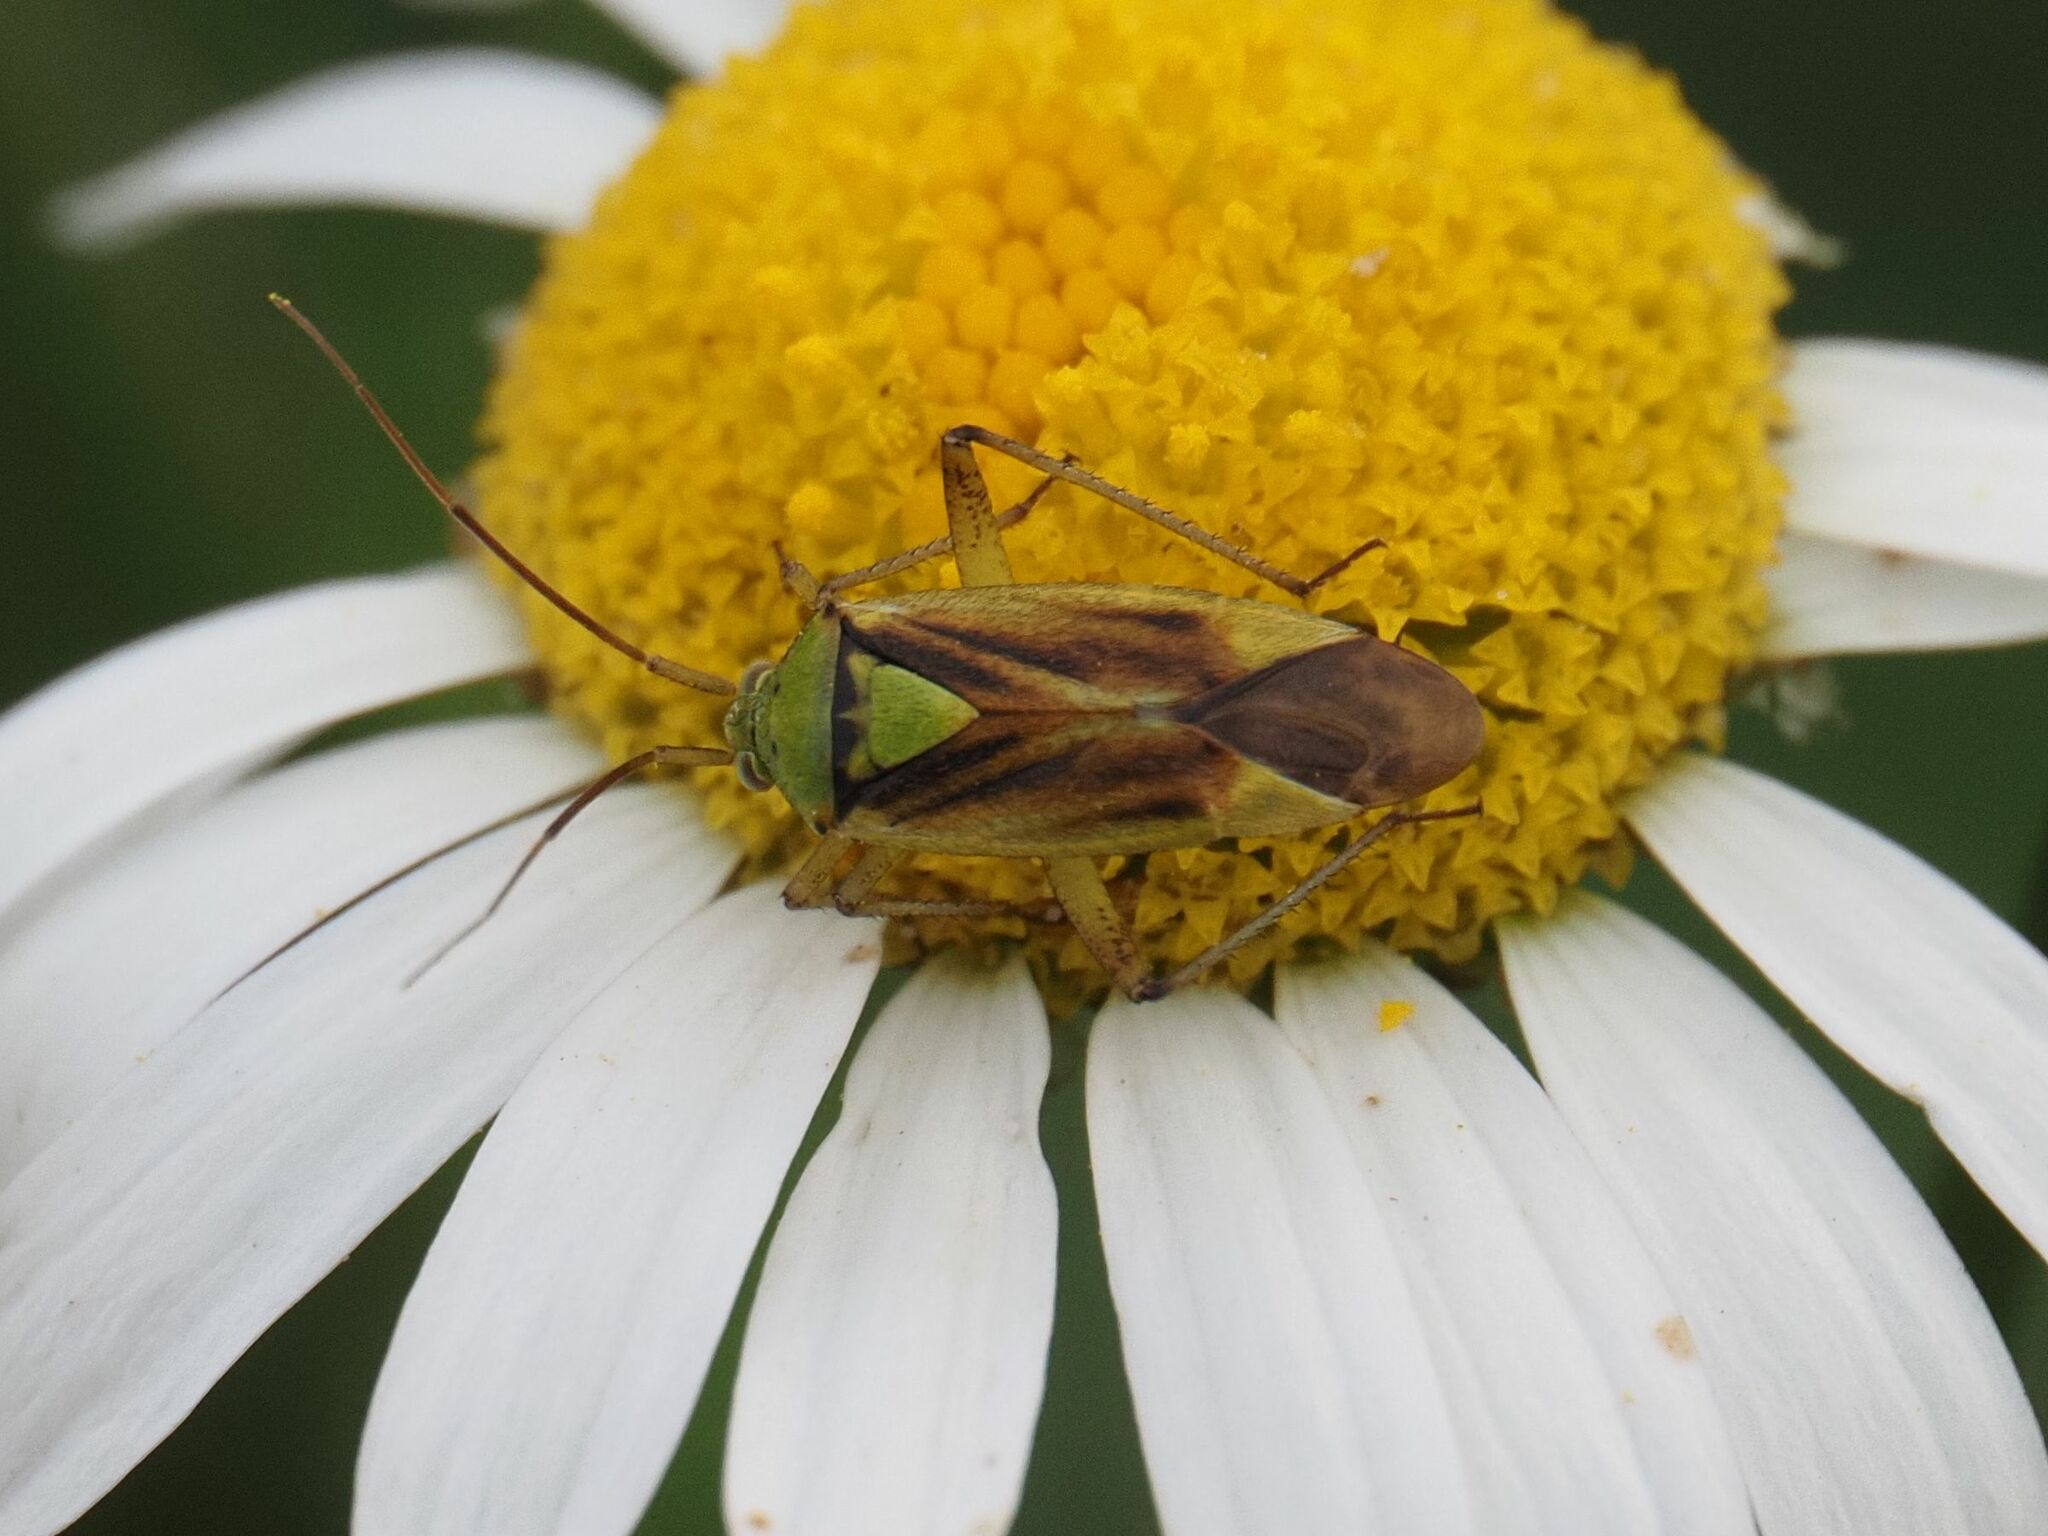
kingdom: Animalia
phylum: Arthropoda
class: Insecta
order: Hemiptera
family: Miridae
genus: Closterotomus
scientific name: Closterotomus norvegicus
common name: Plant bug
